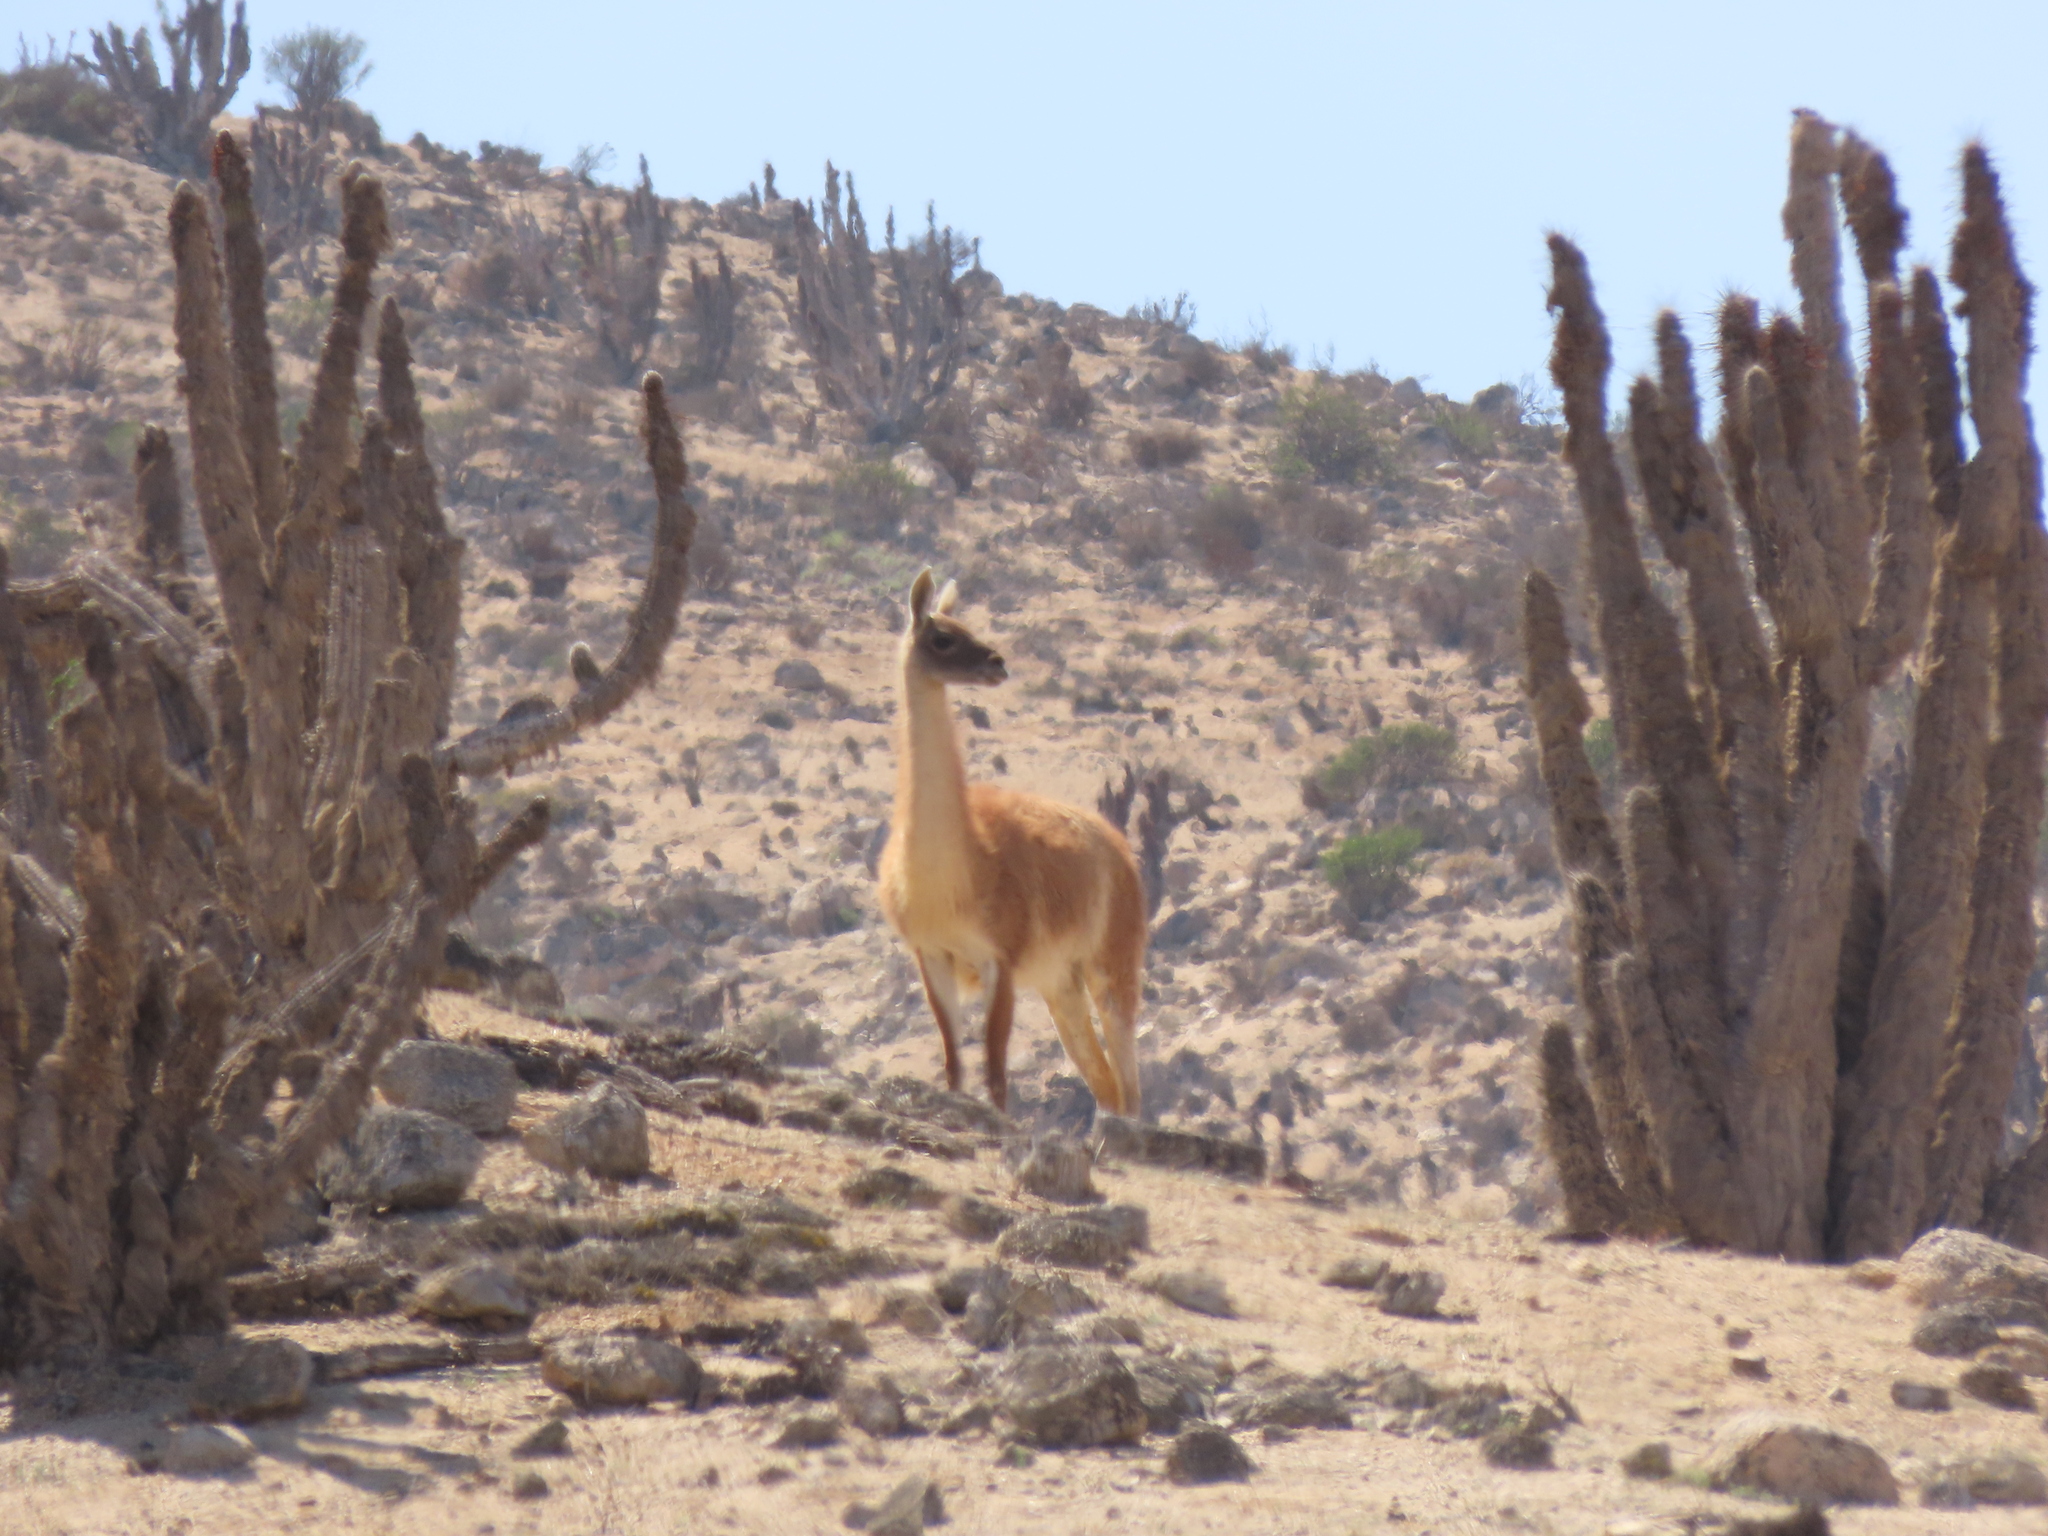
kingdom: Animalia
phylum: Chordata
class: Mammalia
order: Artiodactyla
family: Camelidae
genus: Lama
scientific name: Lama glama
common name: Llama
